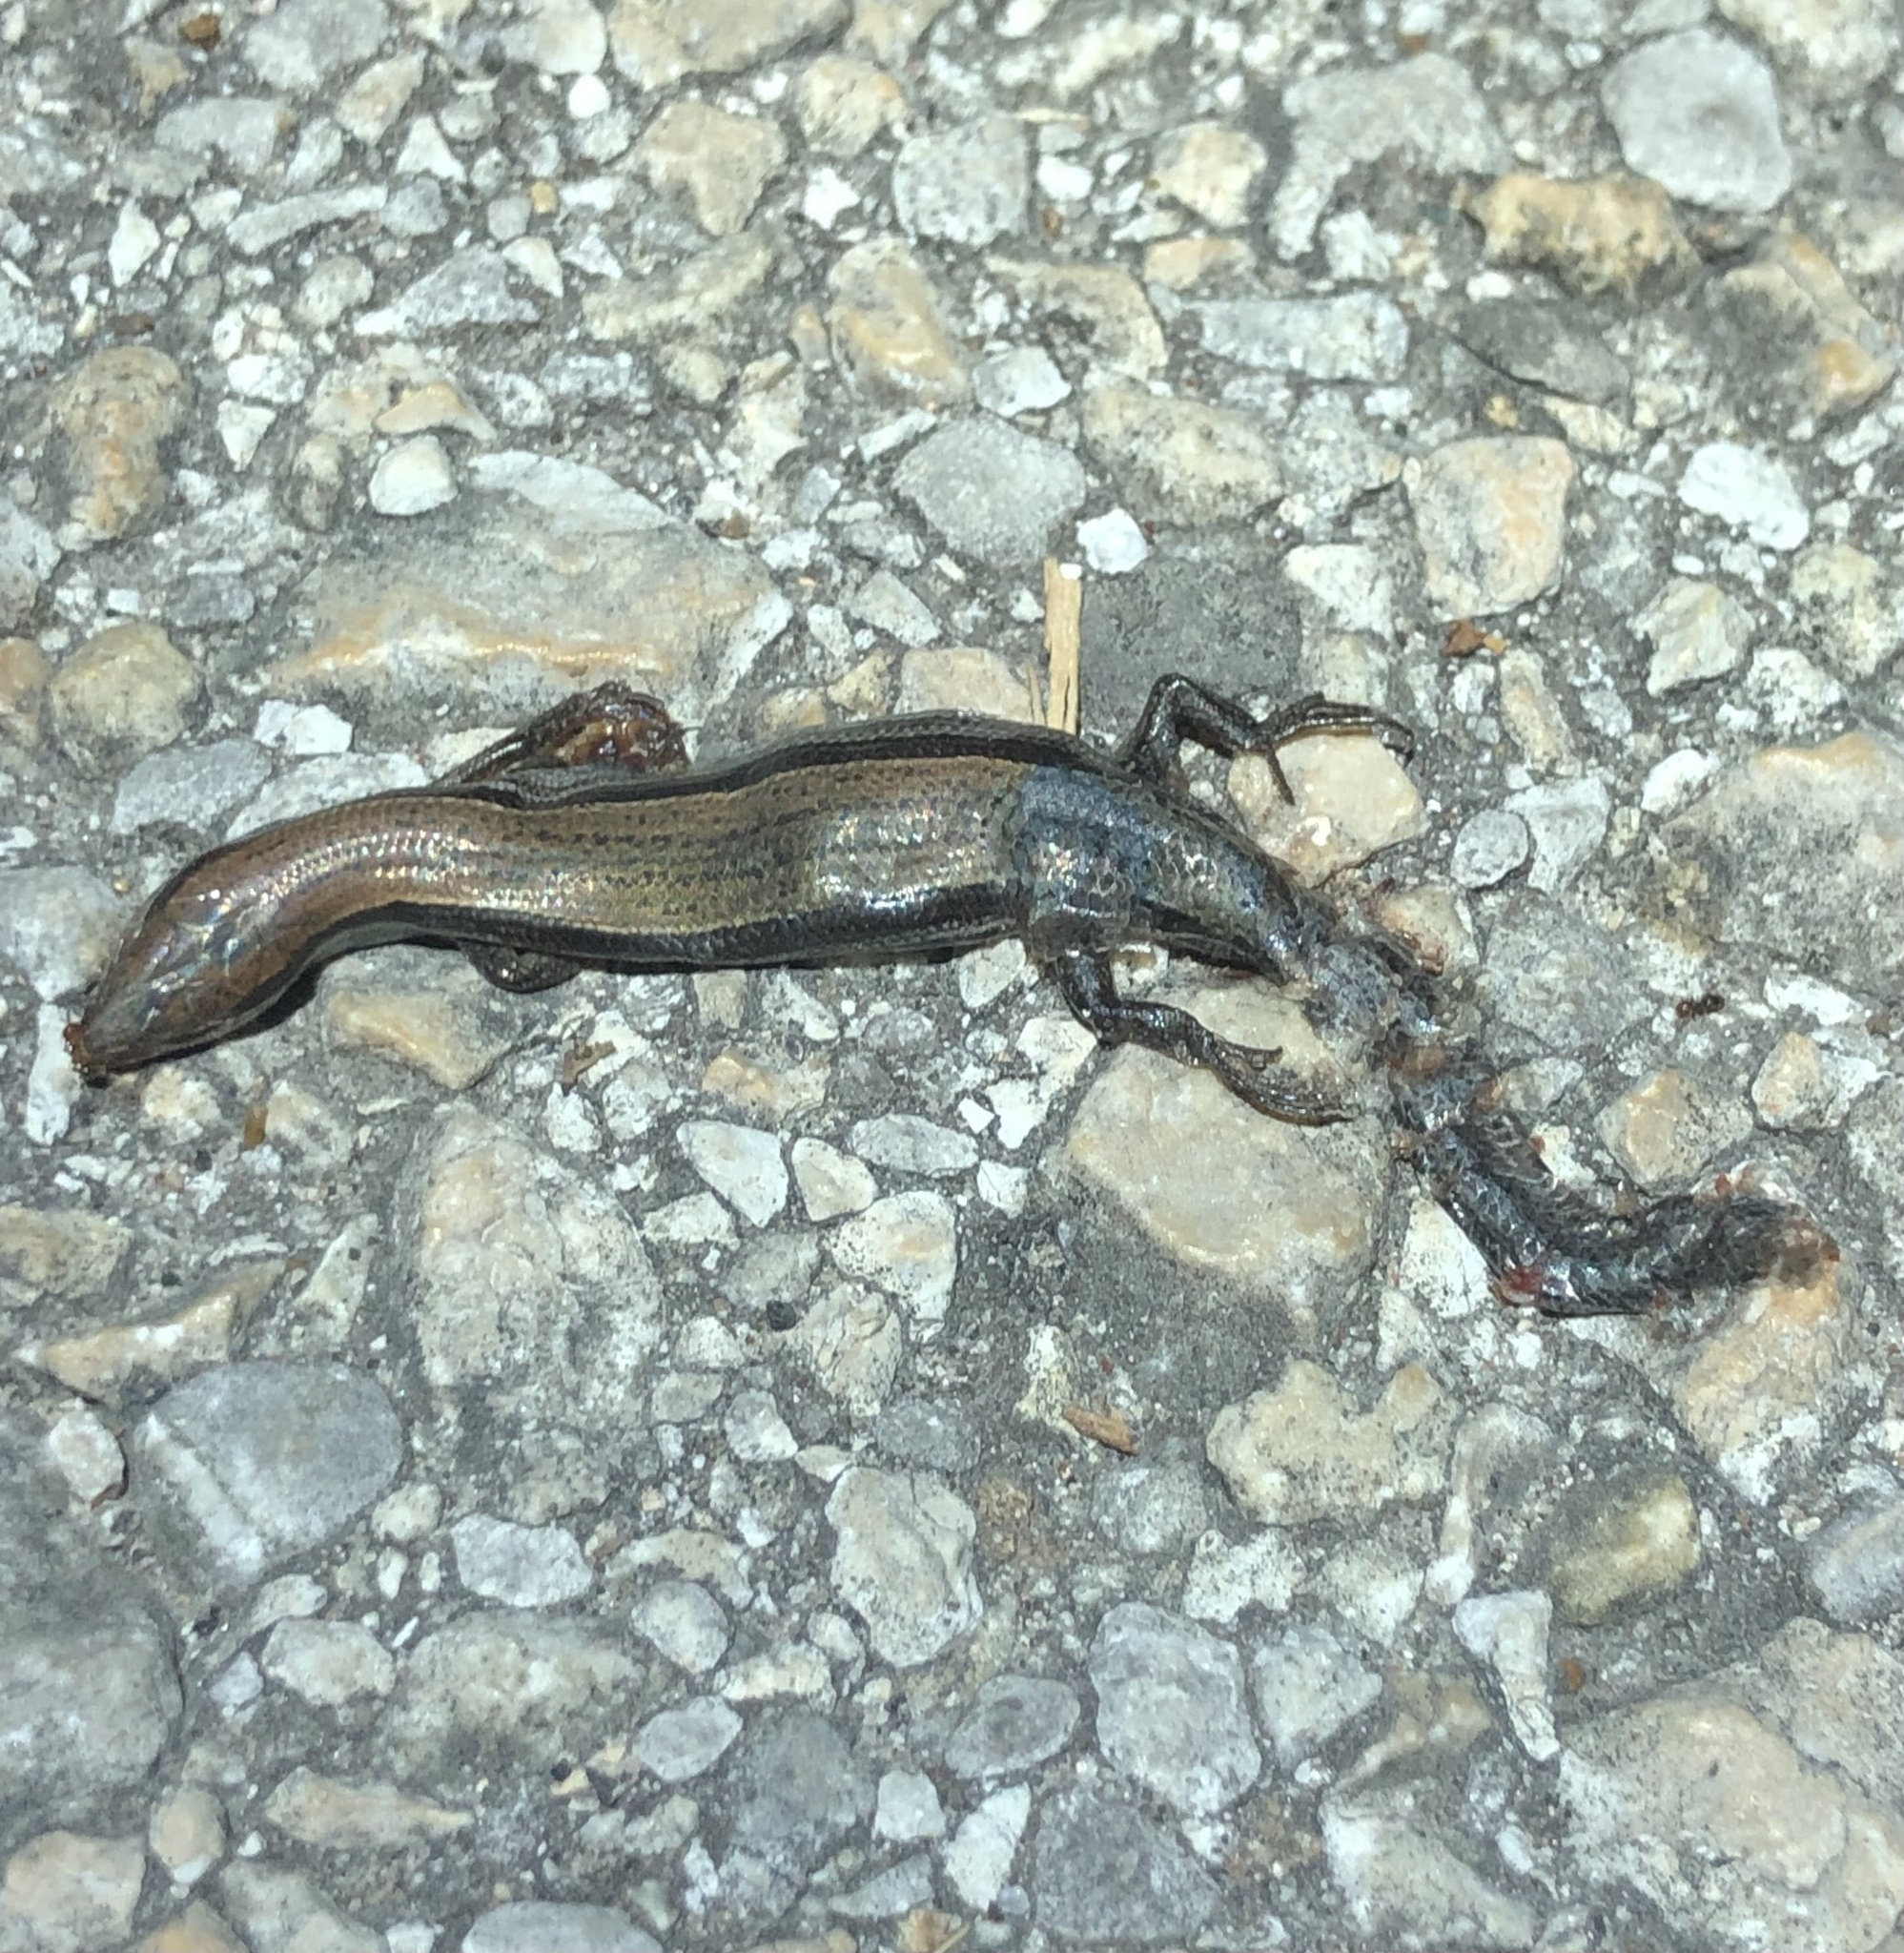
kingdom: Animalia
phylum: Chordata
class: Squamata
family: Scincidae
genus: Scincella
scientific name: Scincella lateralis
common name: Ground skink
